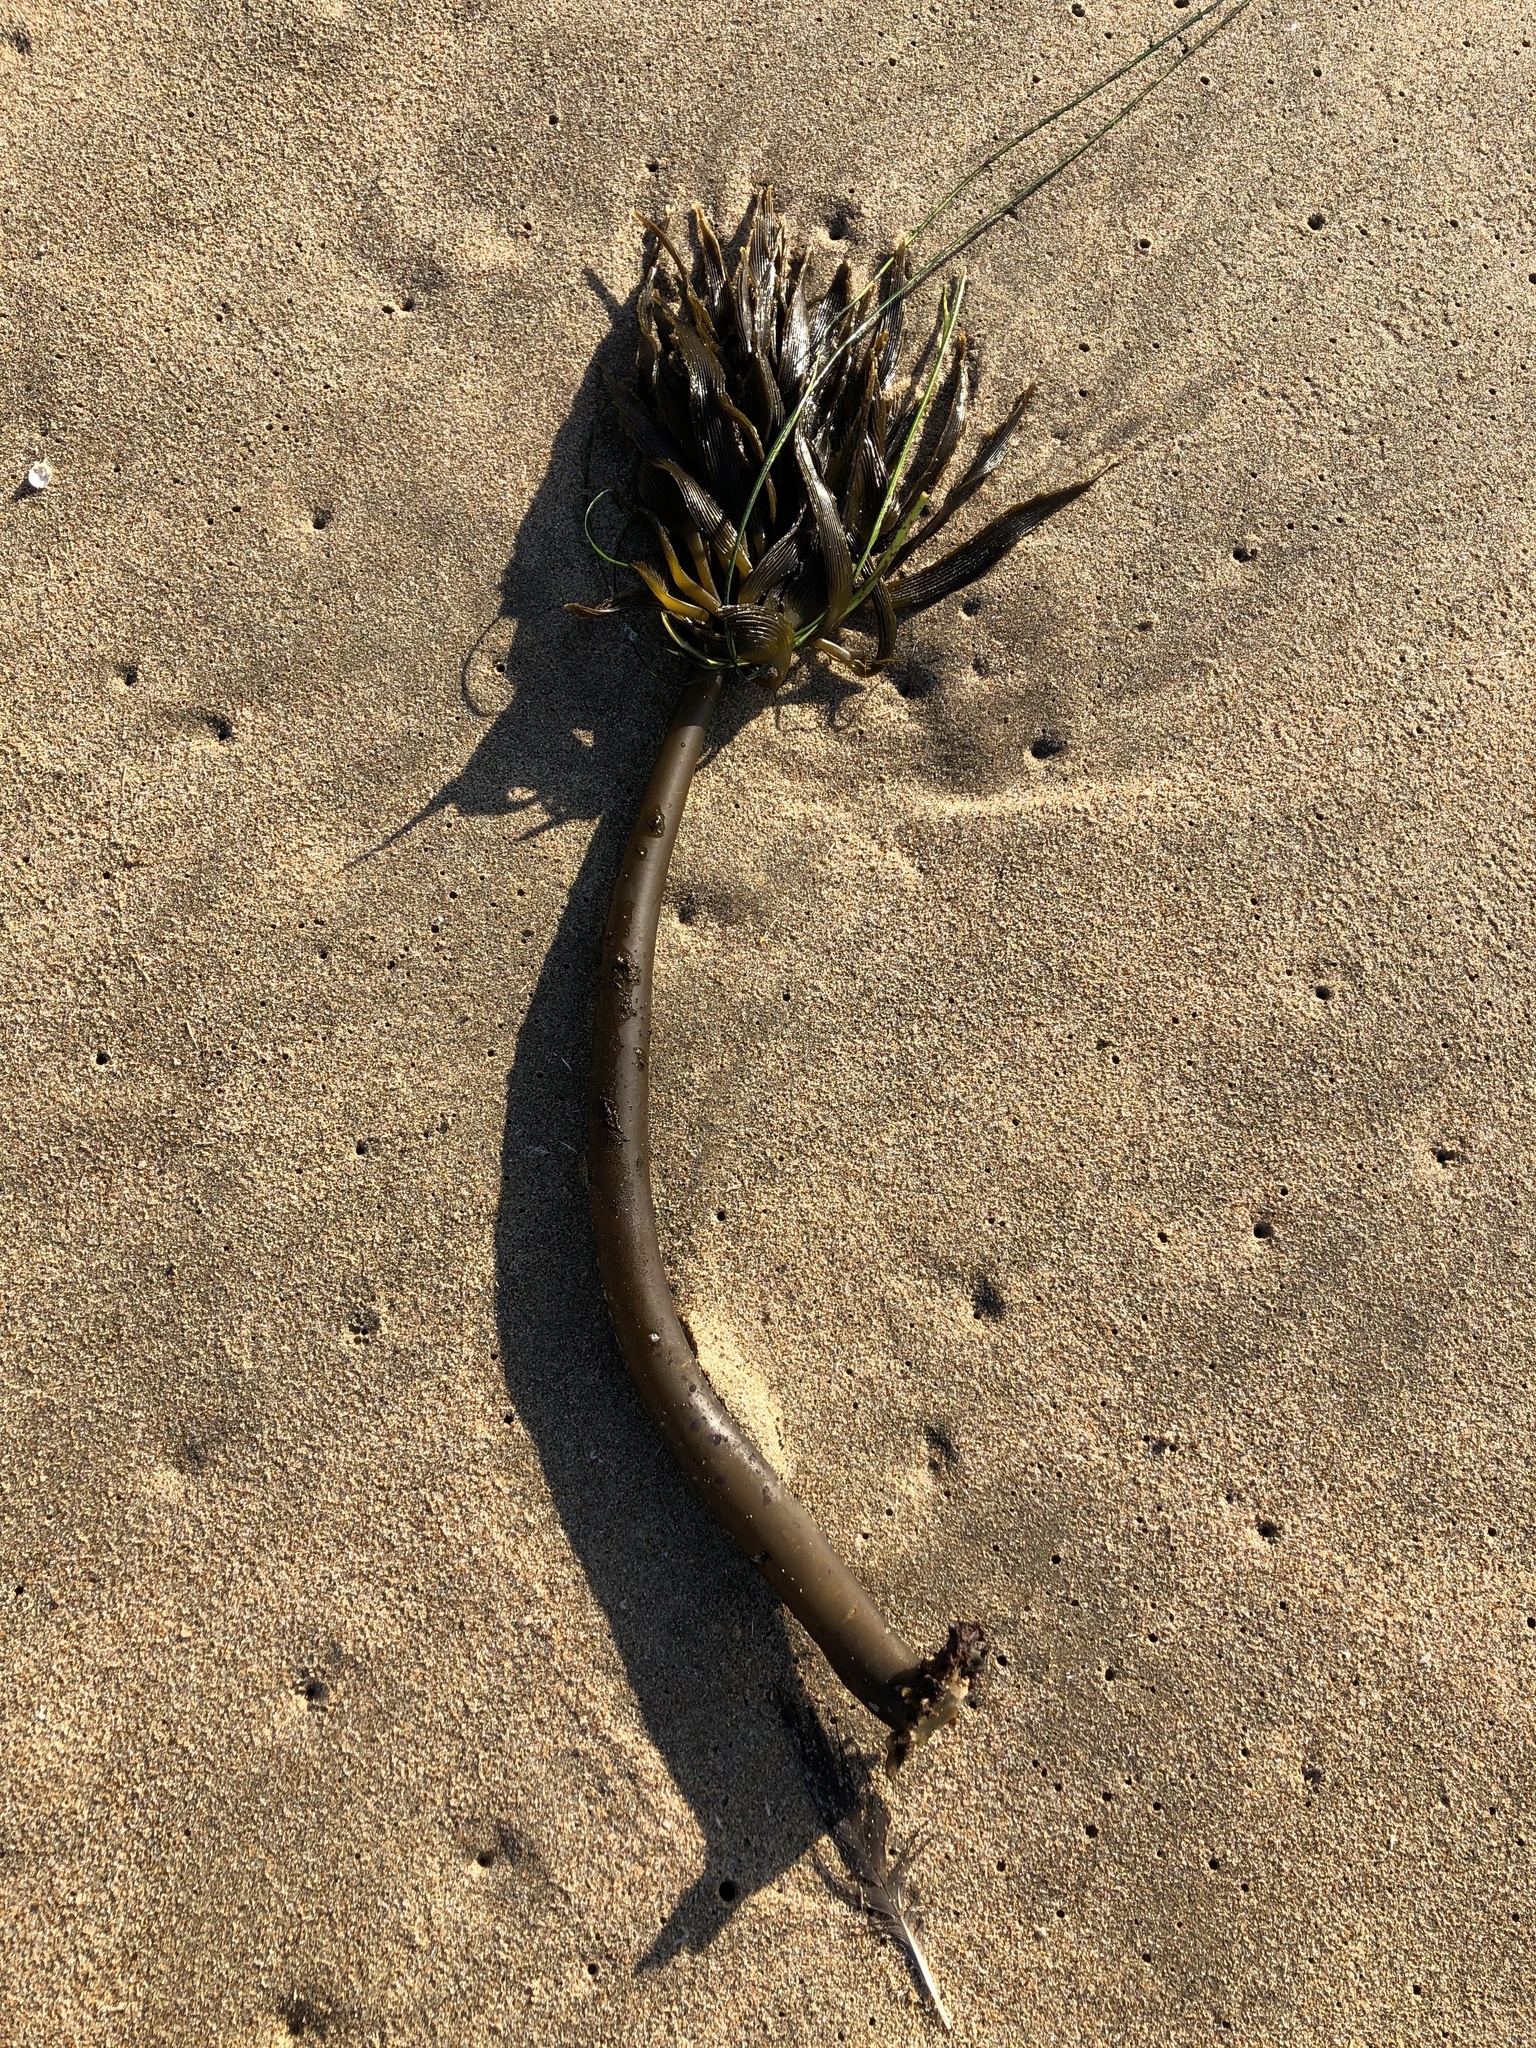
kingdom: Chromista
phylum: Ochrophyta
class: Phaeophyceae
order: Laminariales
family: Laminariaceae
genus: Postelsia
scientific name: Postelsia palmiformis
